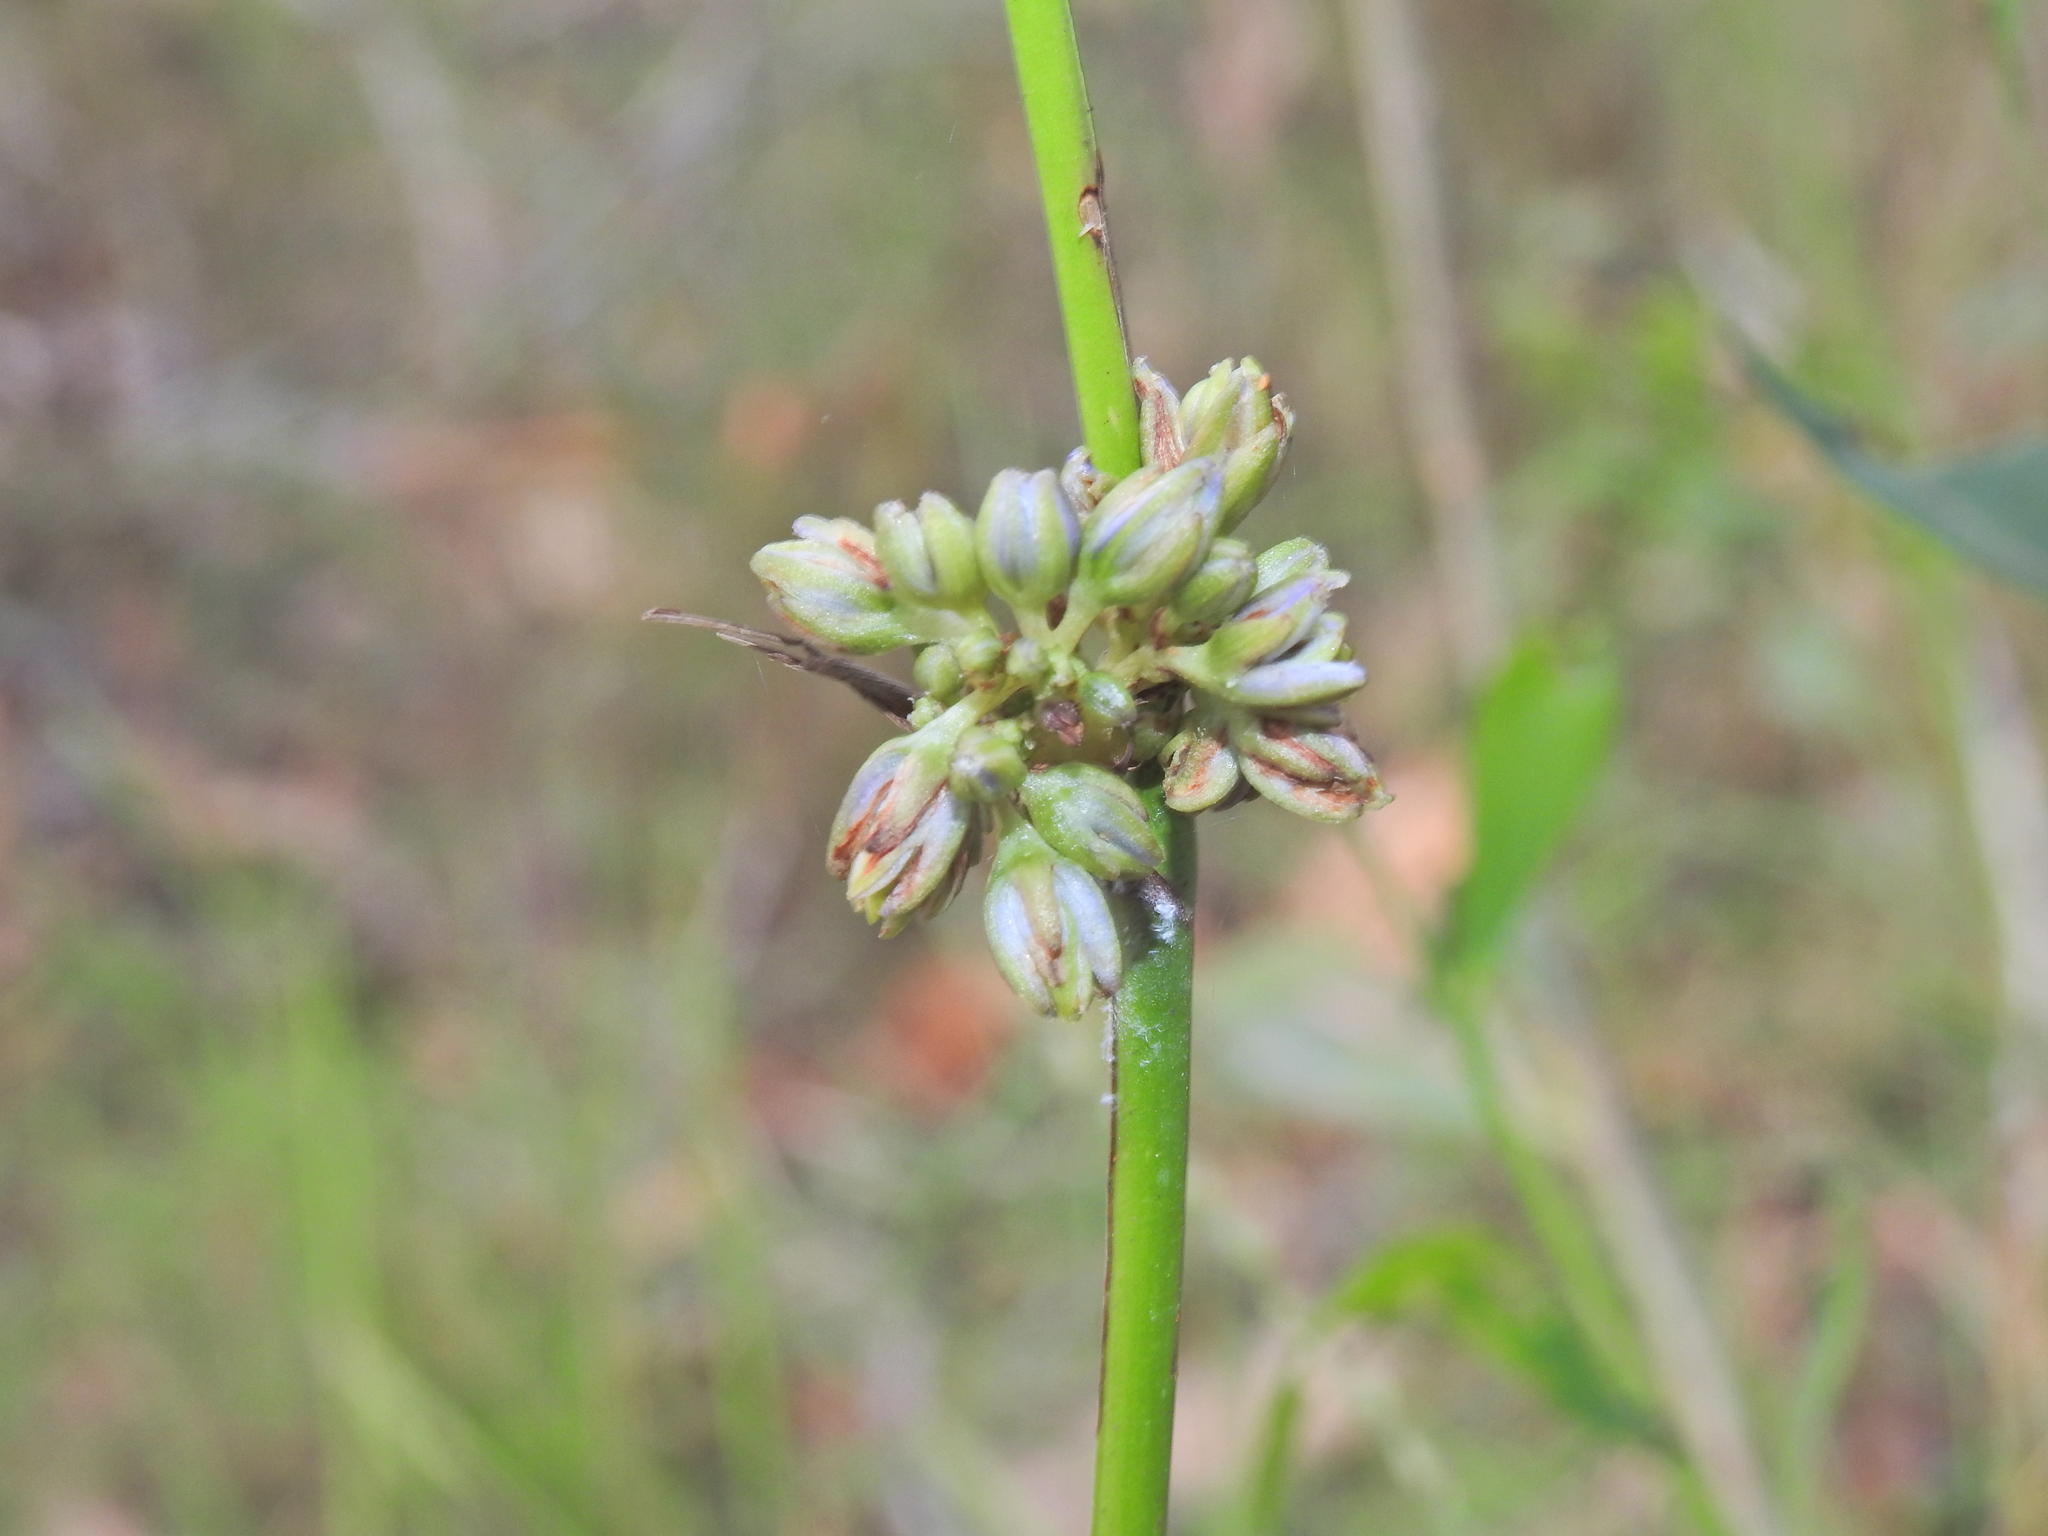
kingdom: Animalia
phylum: Arthropoda
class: Insecta
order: Thysanoptera
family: Thripidae
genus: Anaphothrips
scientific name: Anaphothrips carlylei
